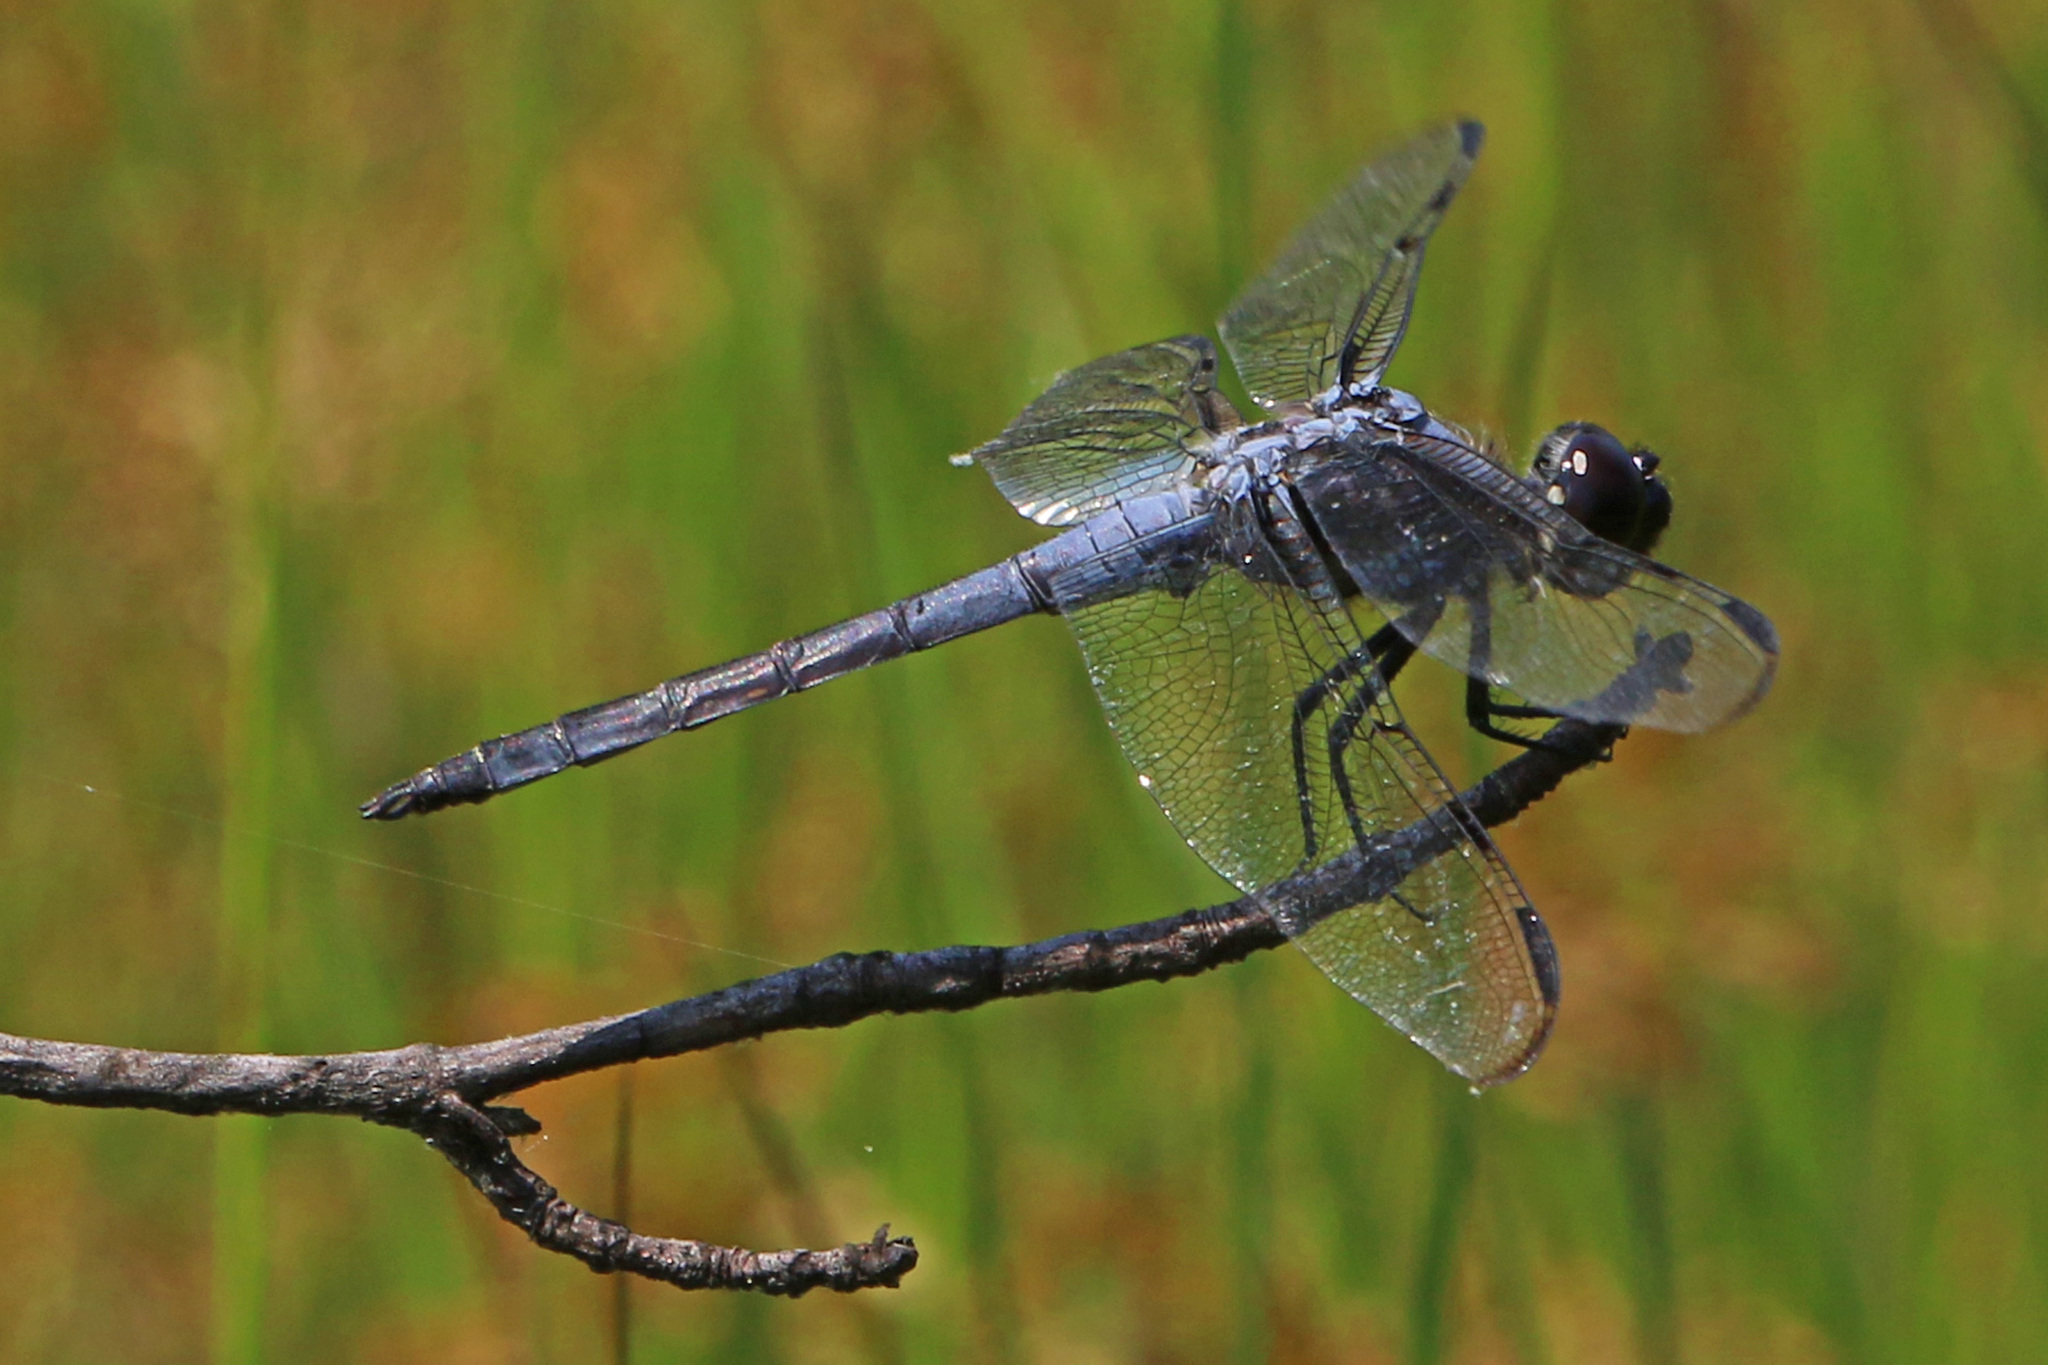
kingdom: Animalia
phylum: Arthropoda
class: Insecta
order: Odonata
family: Libellulidae
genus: Libellula
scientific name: Libellula axilena
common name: Bar-winged skimmer
